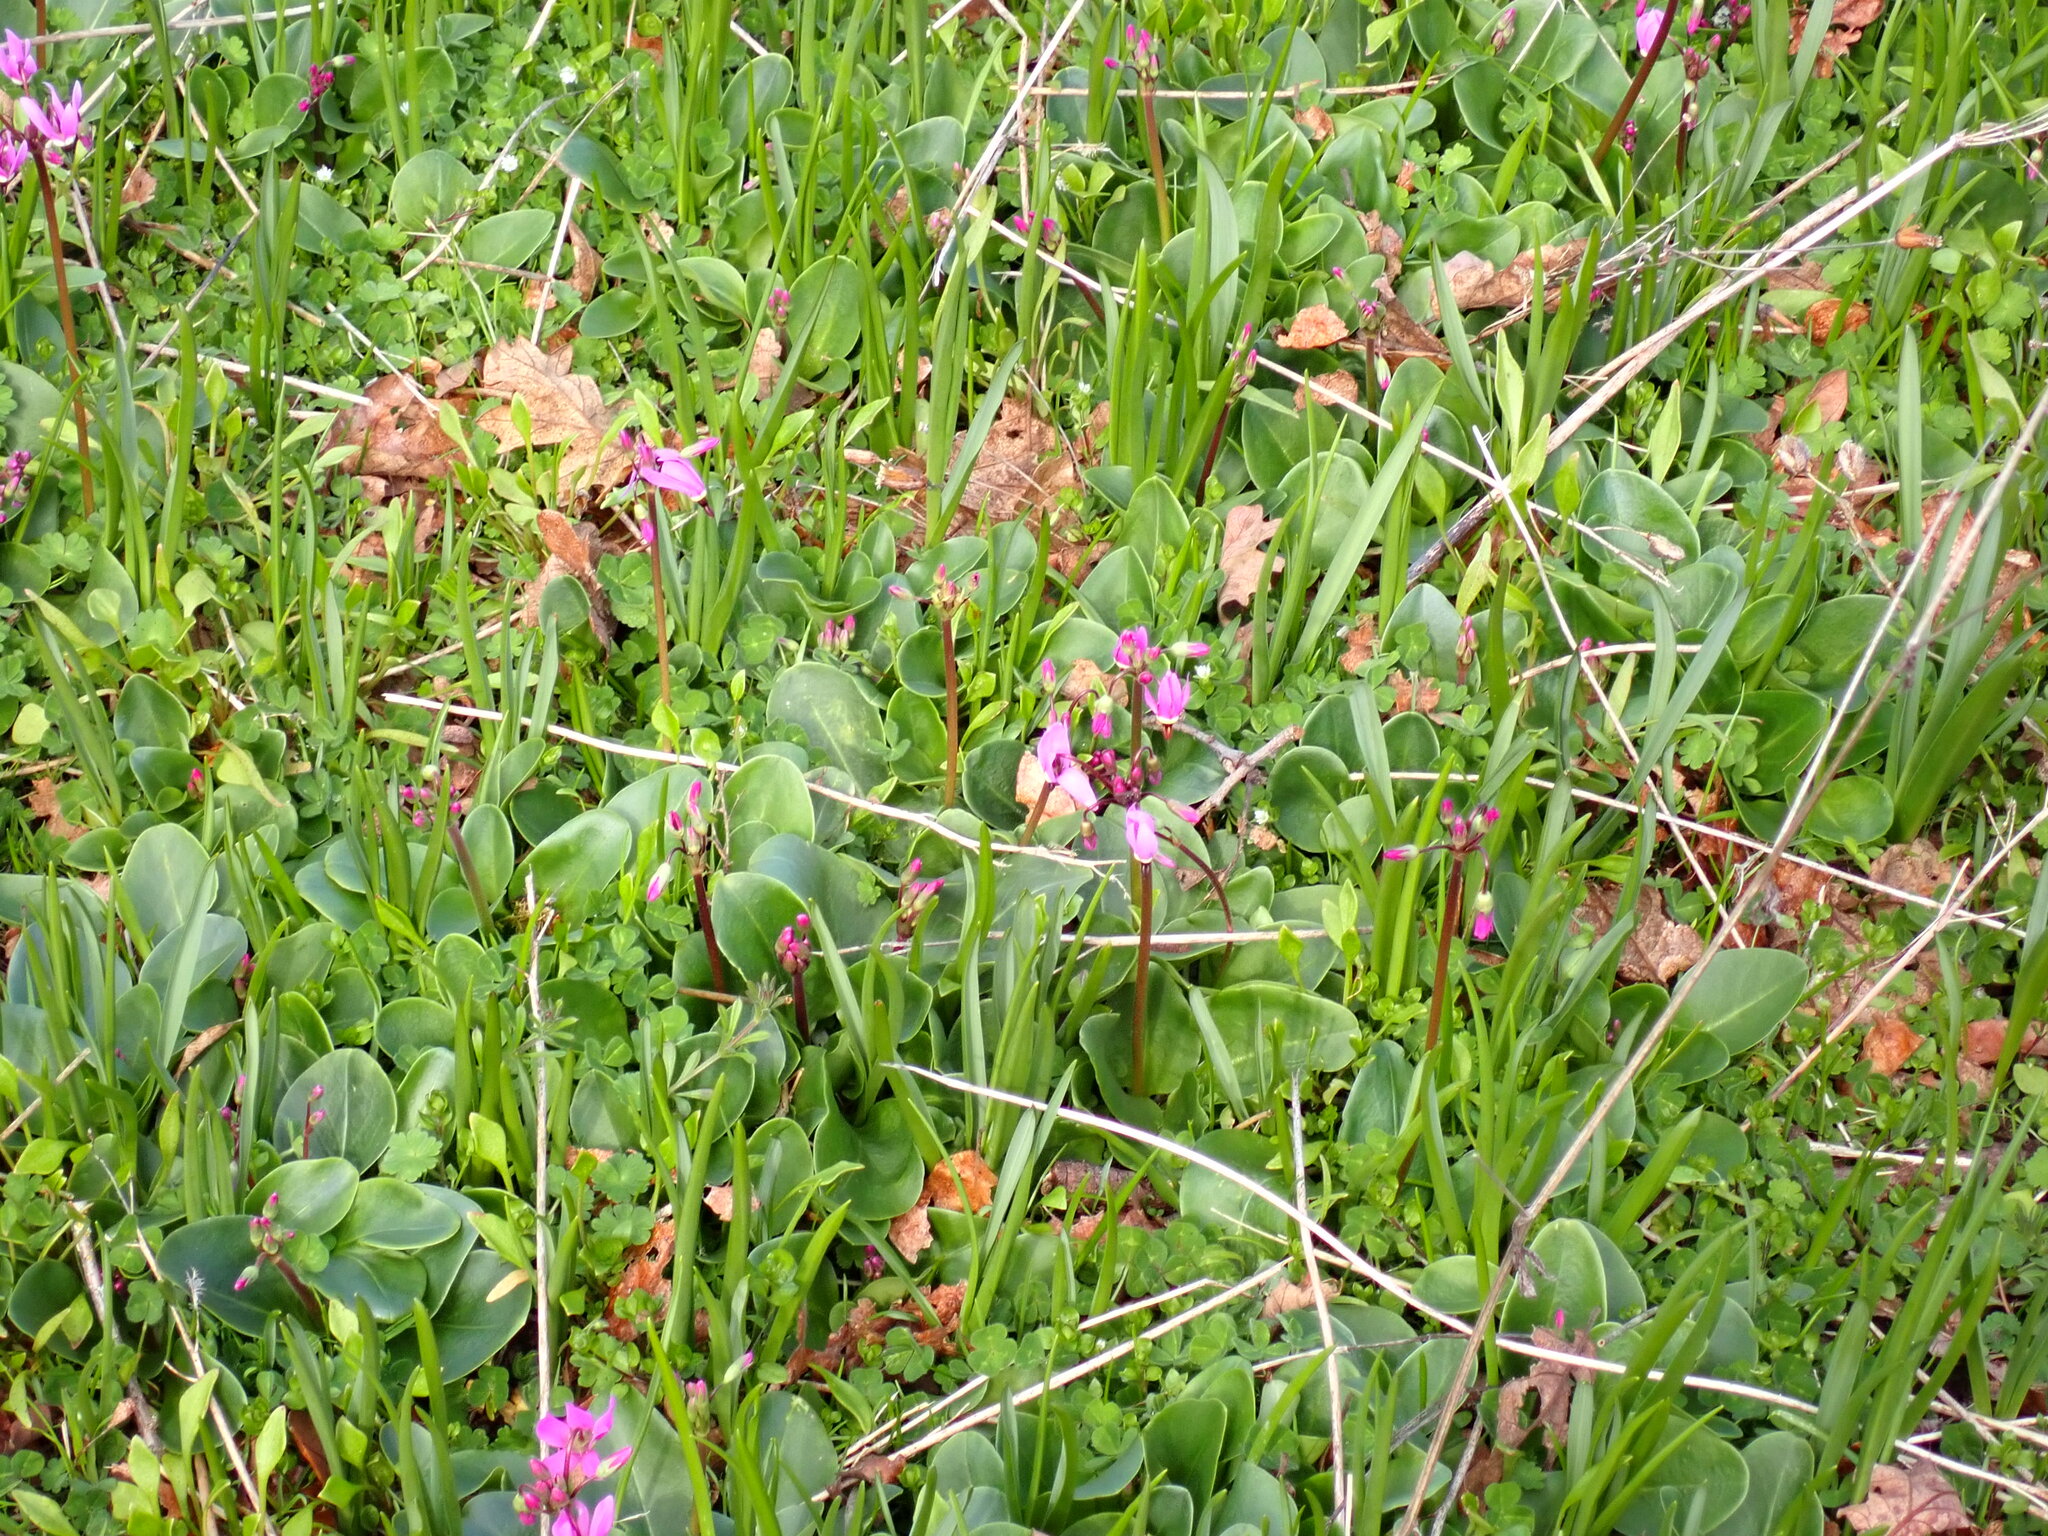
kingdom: Plantae
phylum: Tracheophyta
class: Magnoliopsida
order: Ericales
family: Primulaceae
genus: Dodecatheon
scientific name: Dodecatheon hendersonii
